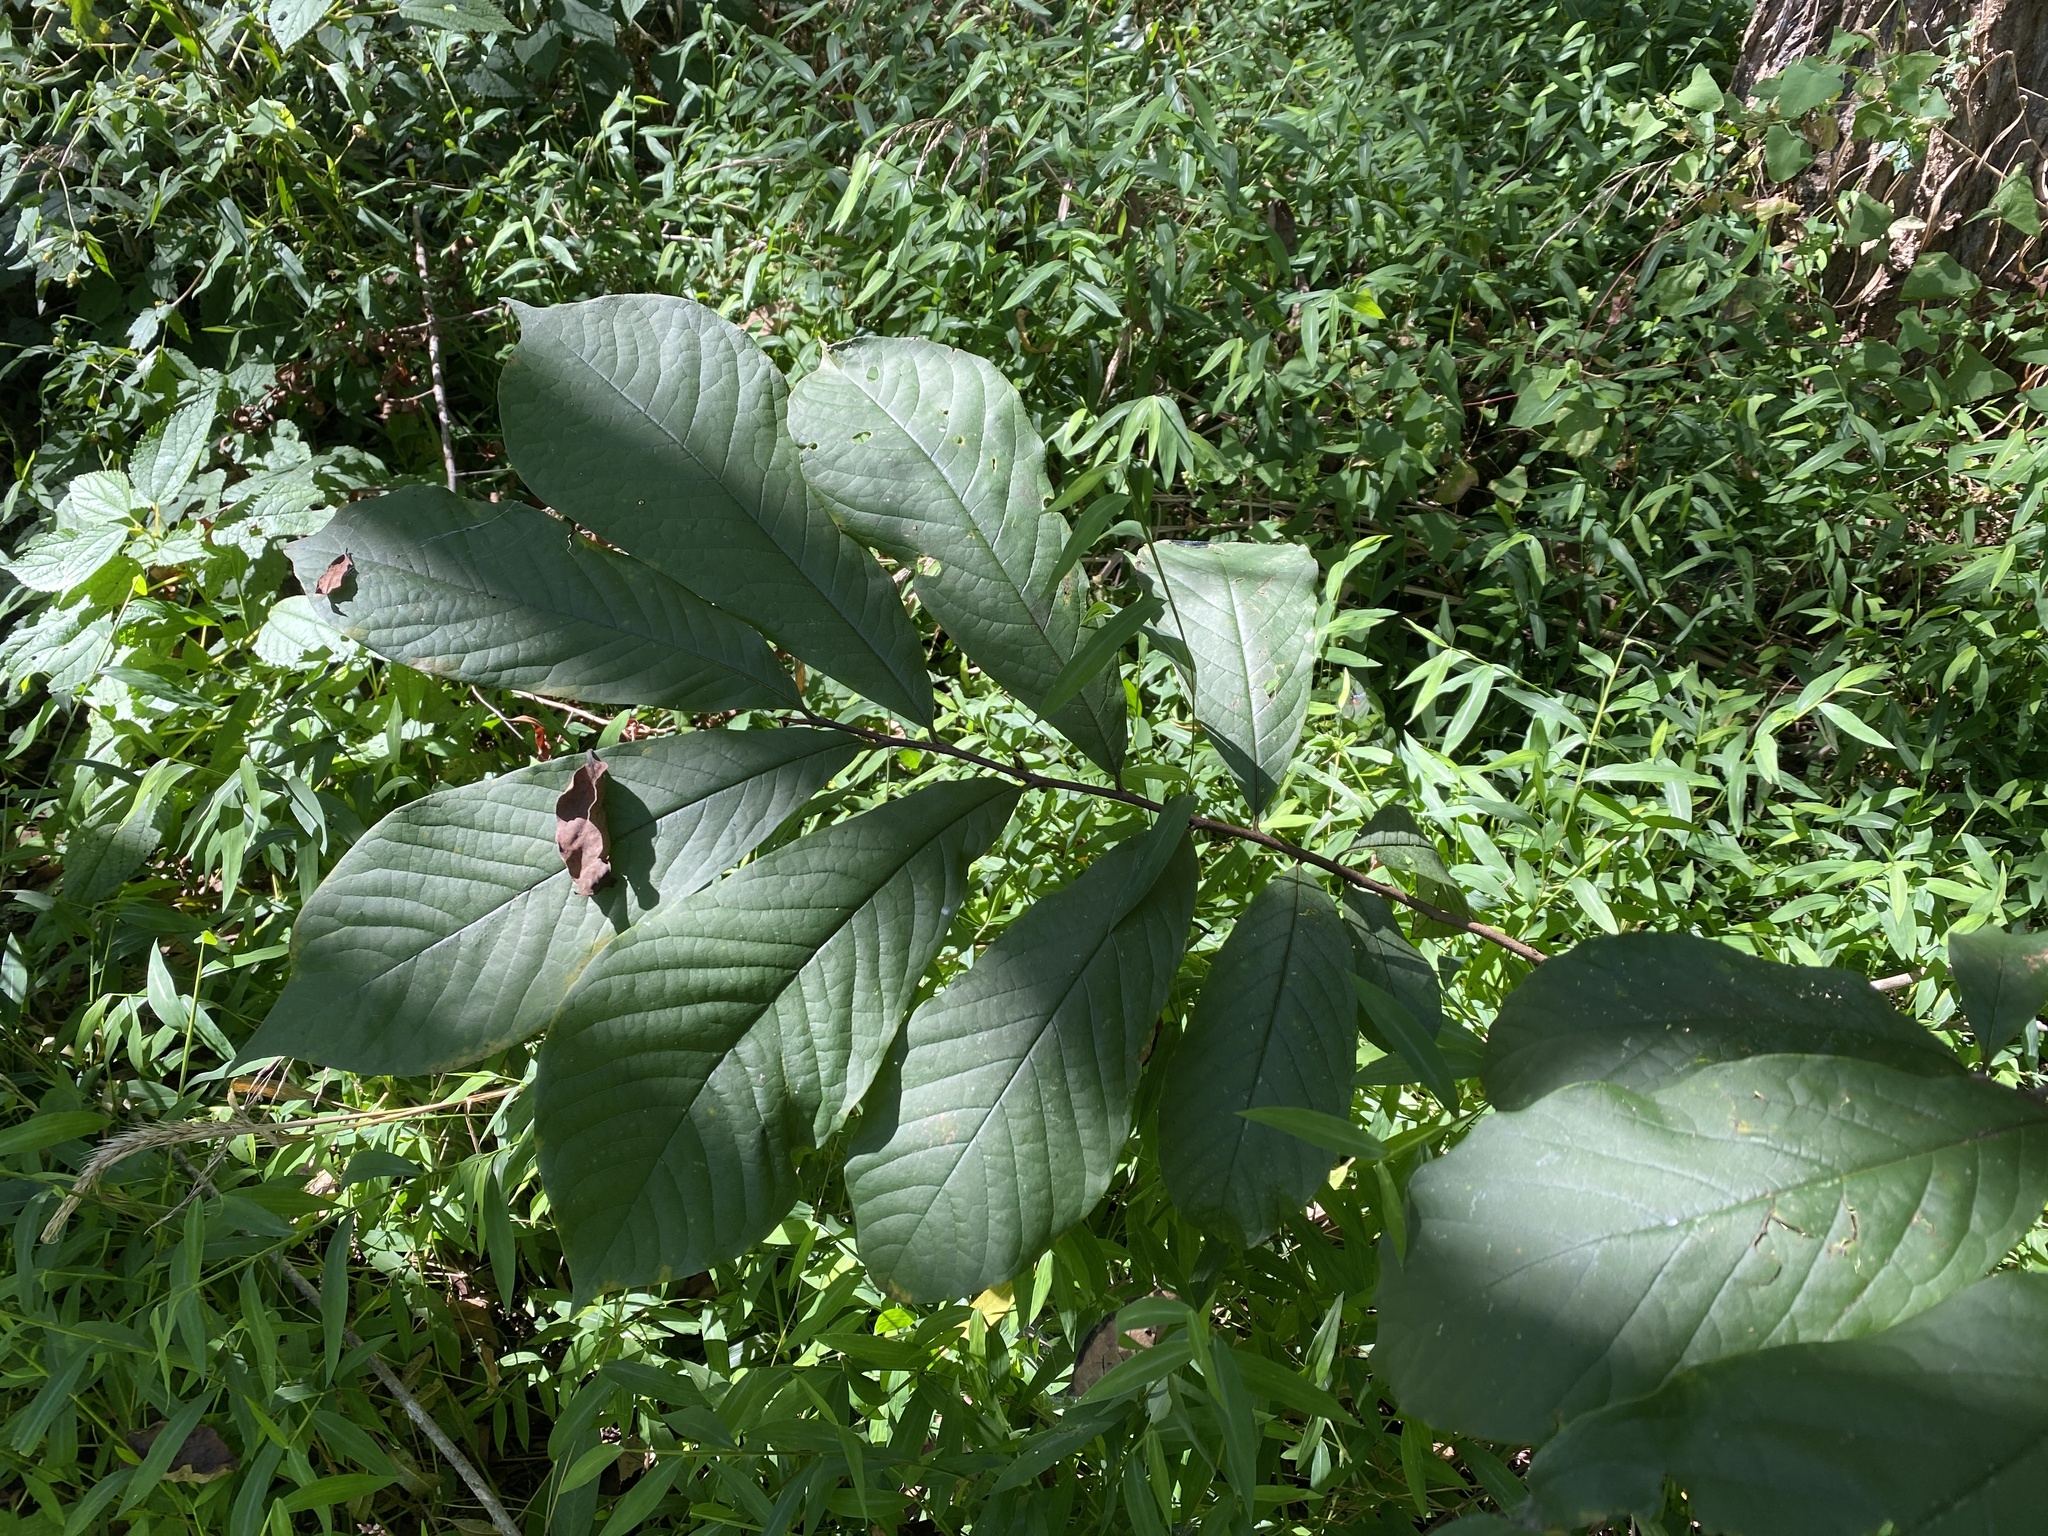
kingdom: Plantae
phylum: Tracheophyta
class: Magnoliopsida
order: Magnoliales
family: Annonaceae
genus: Asimina
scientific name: Asimina triloba
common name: Dog-banana
